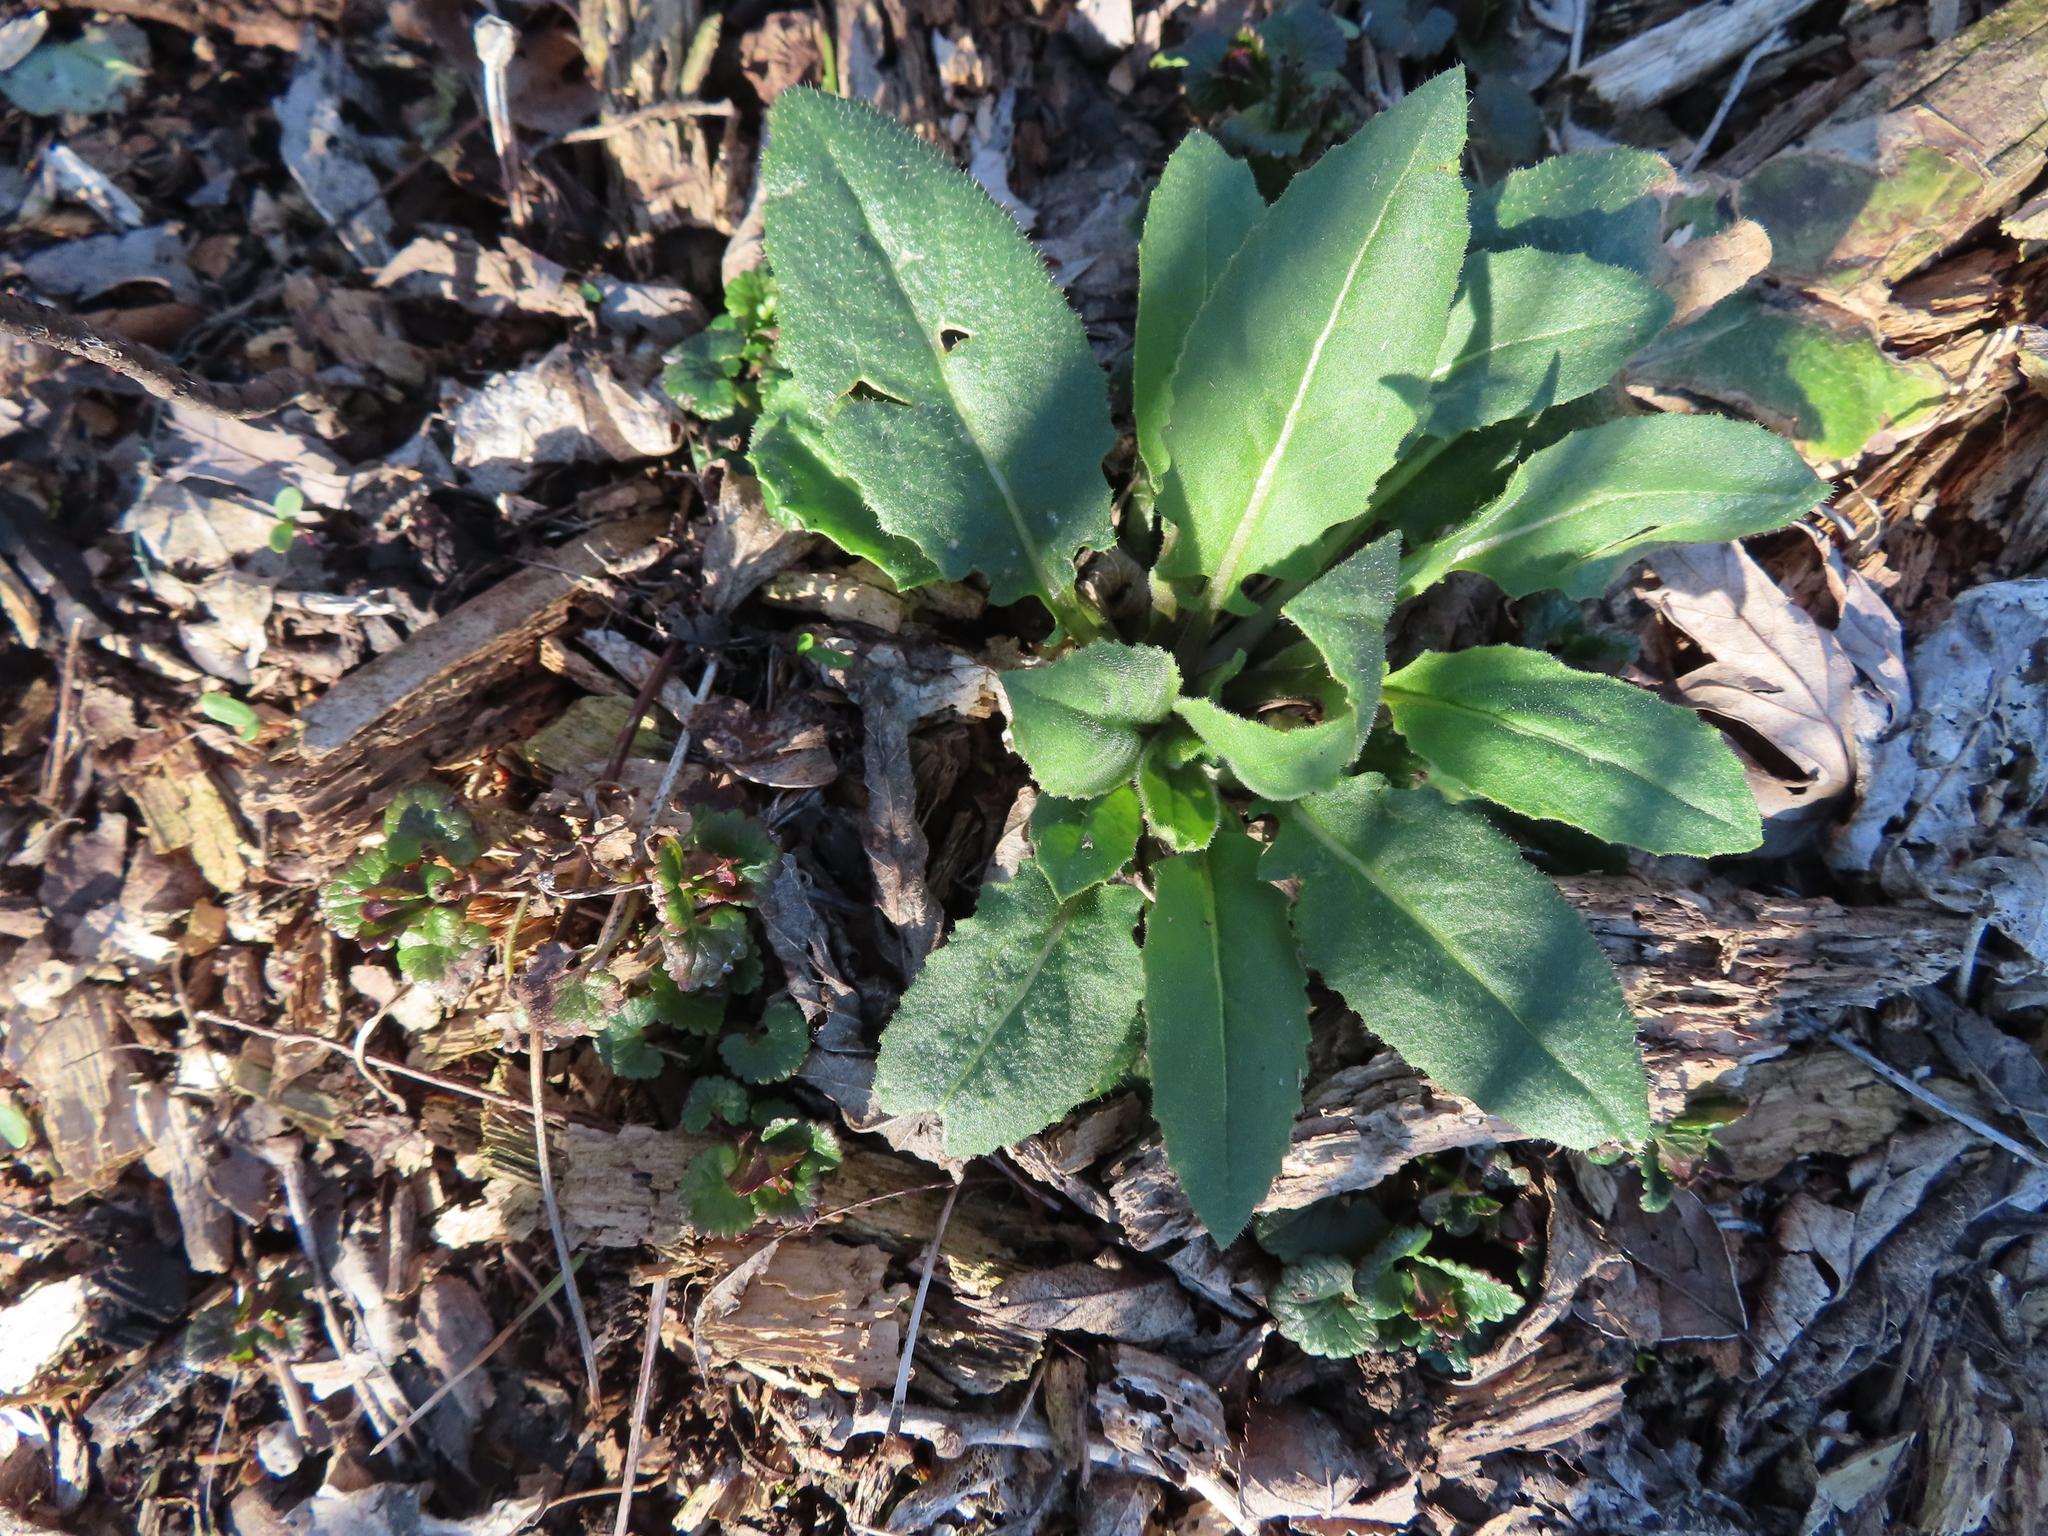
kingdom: Plantae
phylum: Tracheophyta
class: Magnoliopsida
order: Brassicales
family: Brassicaceae
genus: Hesperis
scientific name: Hesperis matronalis
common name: Dame's-violet
